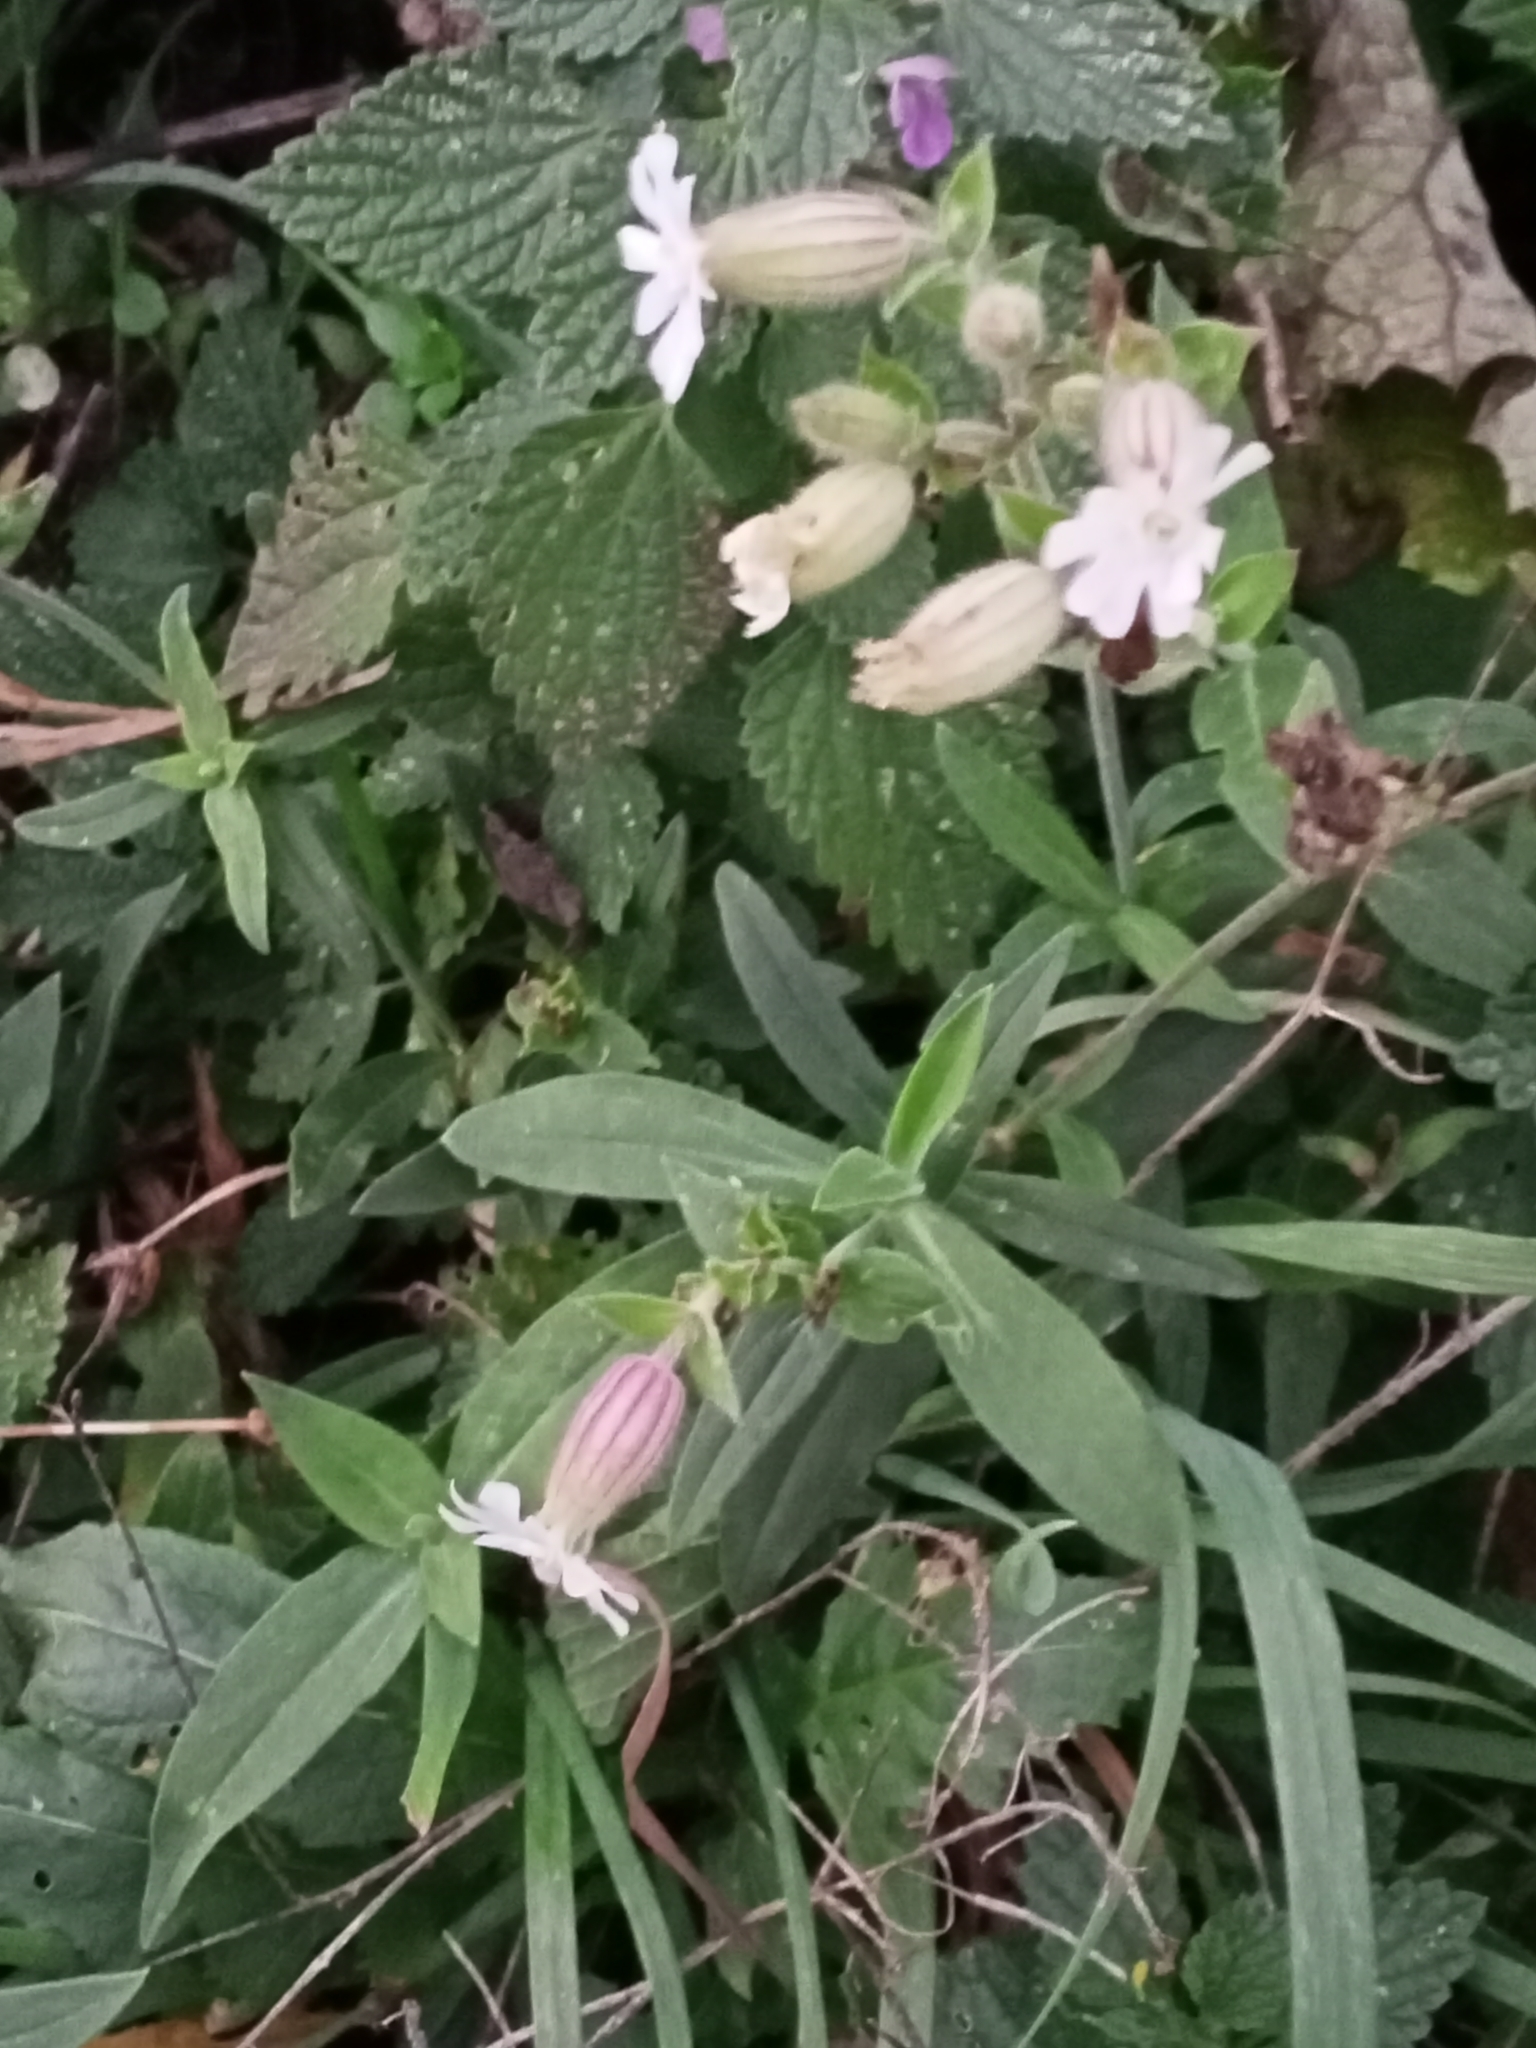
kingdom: Plantae
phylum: Tracheophyta
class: Magnoliopsida
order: Caryophyllales
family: Caryophyllaceae
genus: Silene
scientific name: Silene vulgaris
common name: Bladder campion
